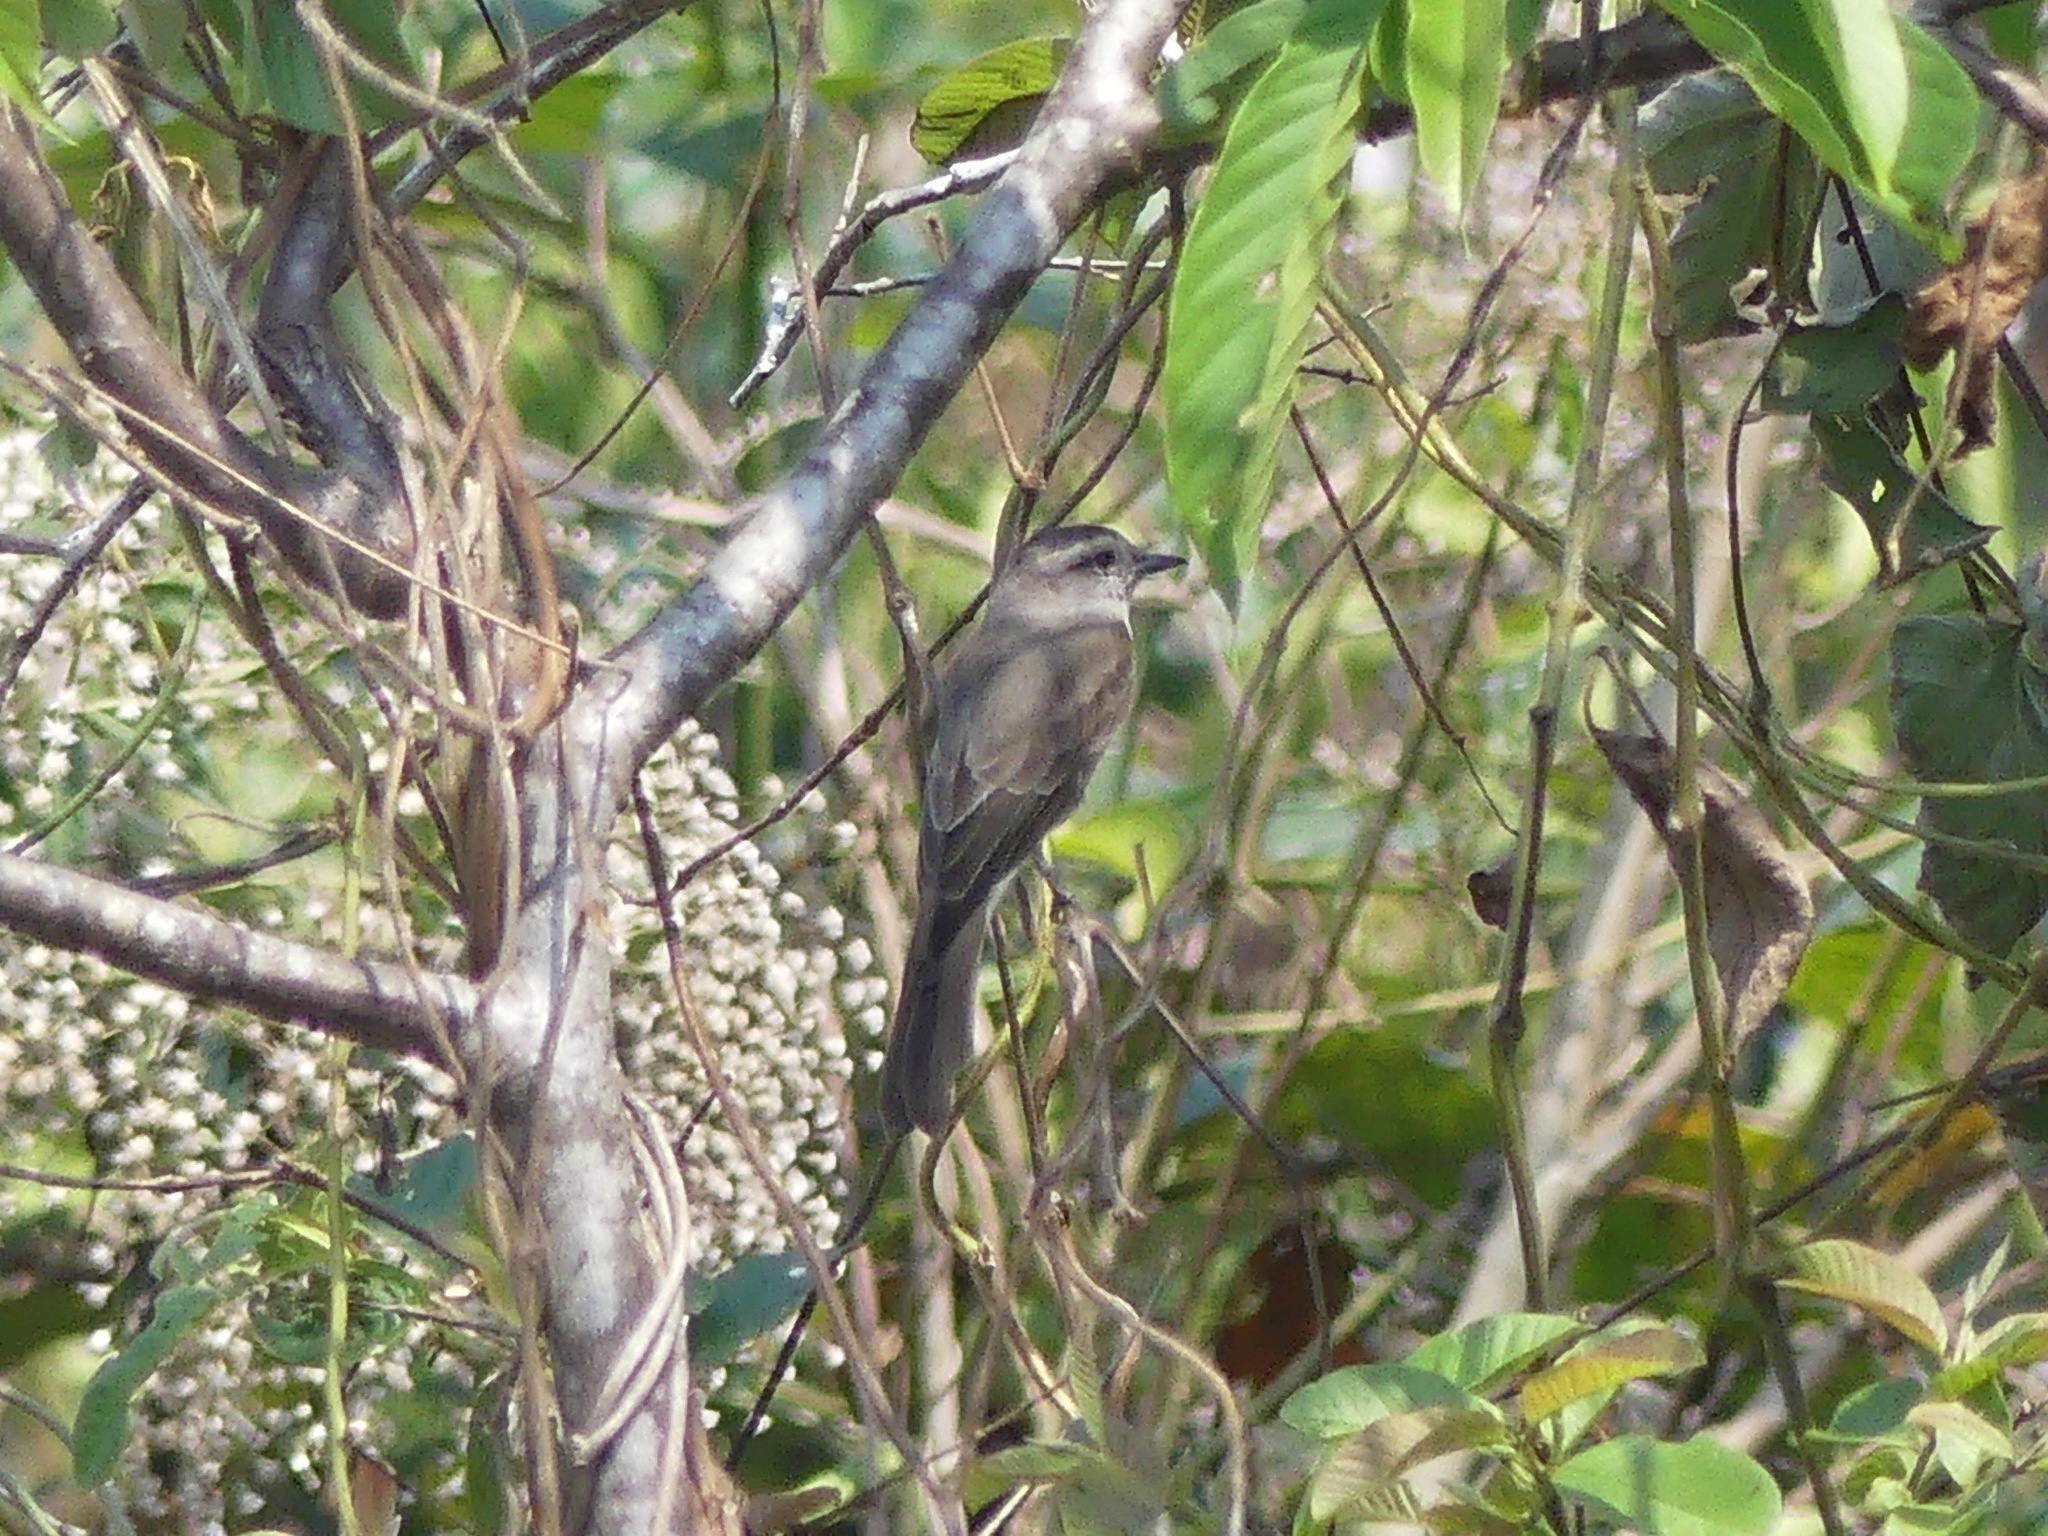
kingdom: Animalia
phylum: Chordata
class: Aves
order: Passeriformes
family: Tyrannidae
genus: Empidonomus
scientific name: Empidonomus aurantioatrocristatus
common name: Crowned slaty flycatcher
